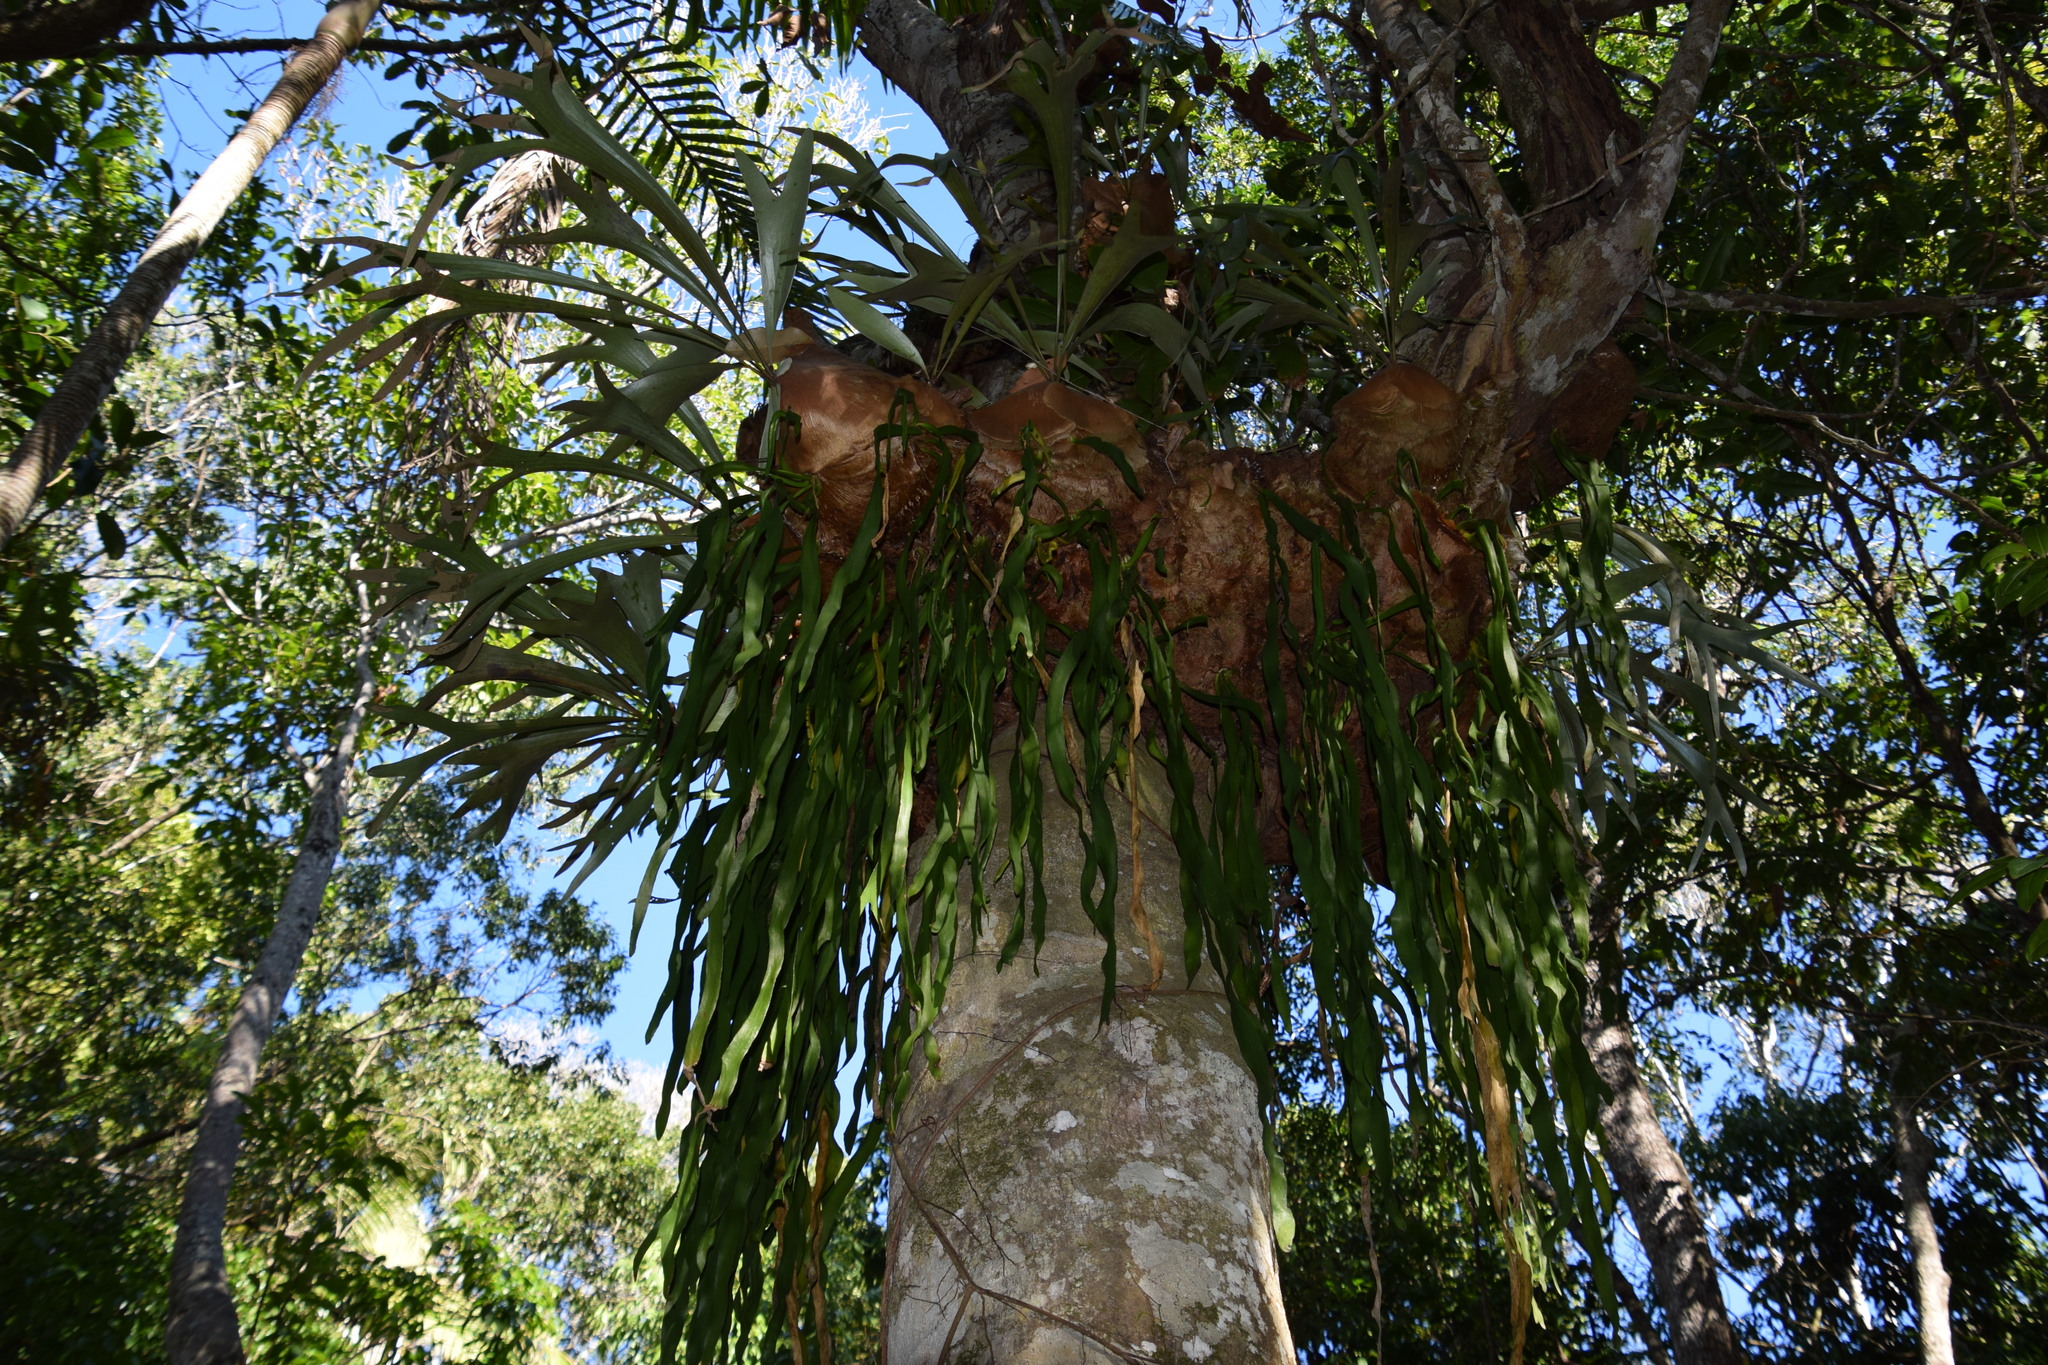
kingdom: Plantae
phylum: Tracheophyta
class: Polypodiopsida
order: Ophioglossales
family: Ophioglossaceae
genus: Ophioderma
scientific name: Ophioderma pendulum
